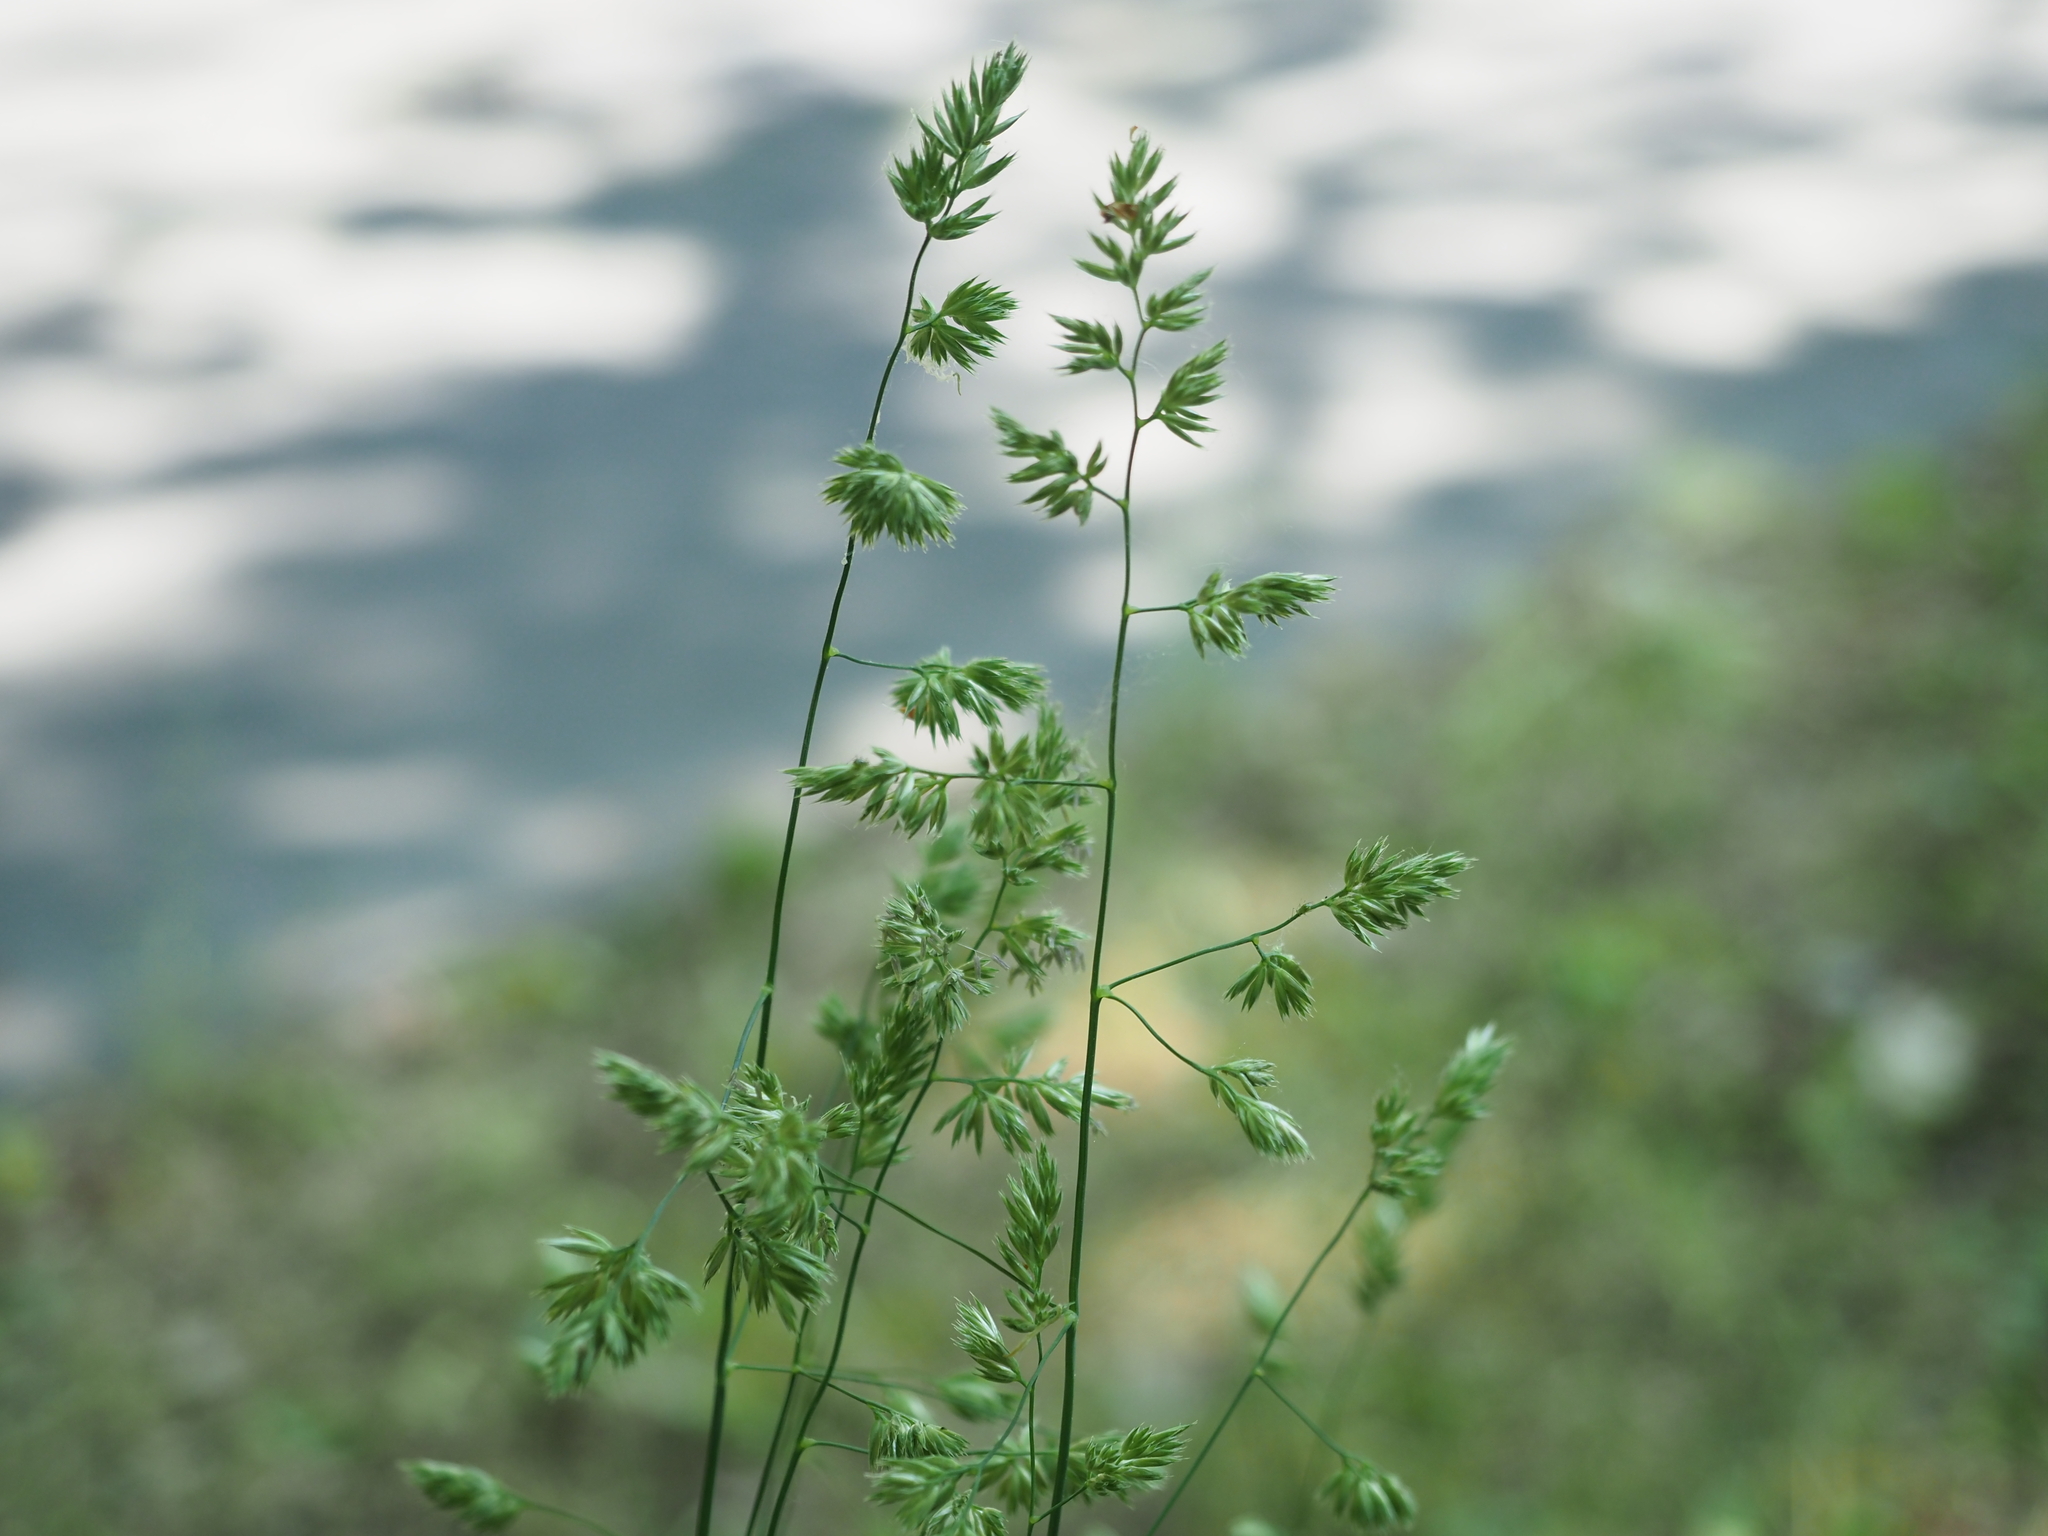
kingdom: Plantae
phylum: Tracheophyta
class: Liliopsida
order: Poales
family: Poaceae
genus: Dactylis
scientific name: Dactylis glomerata
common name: Orchardgrass
